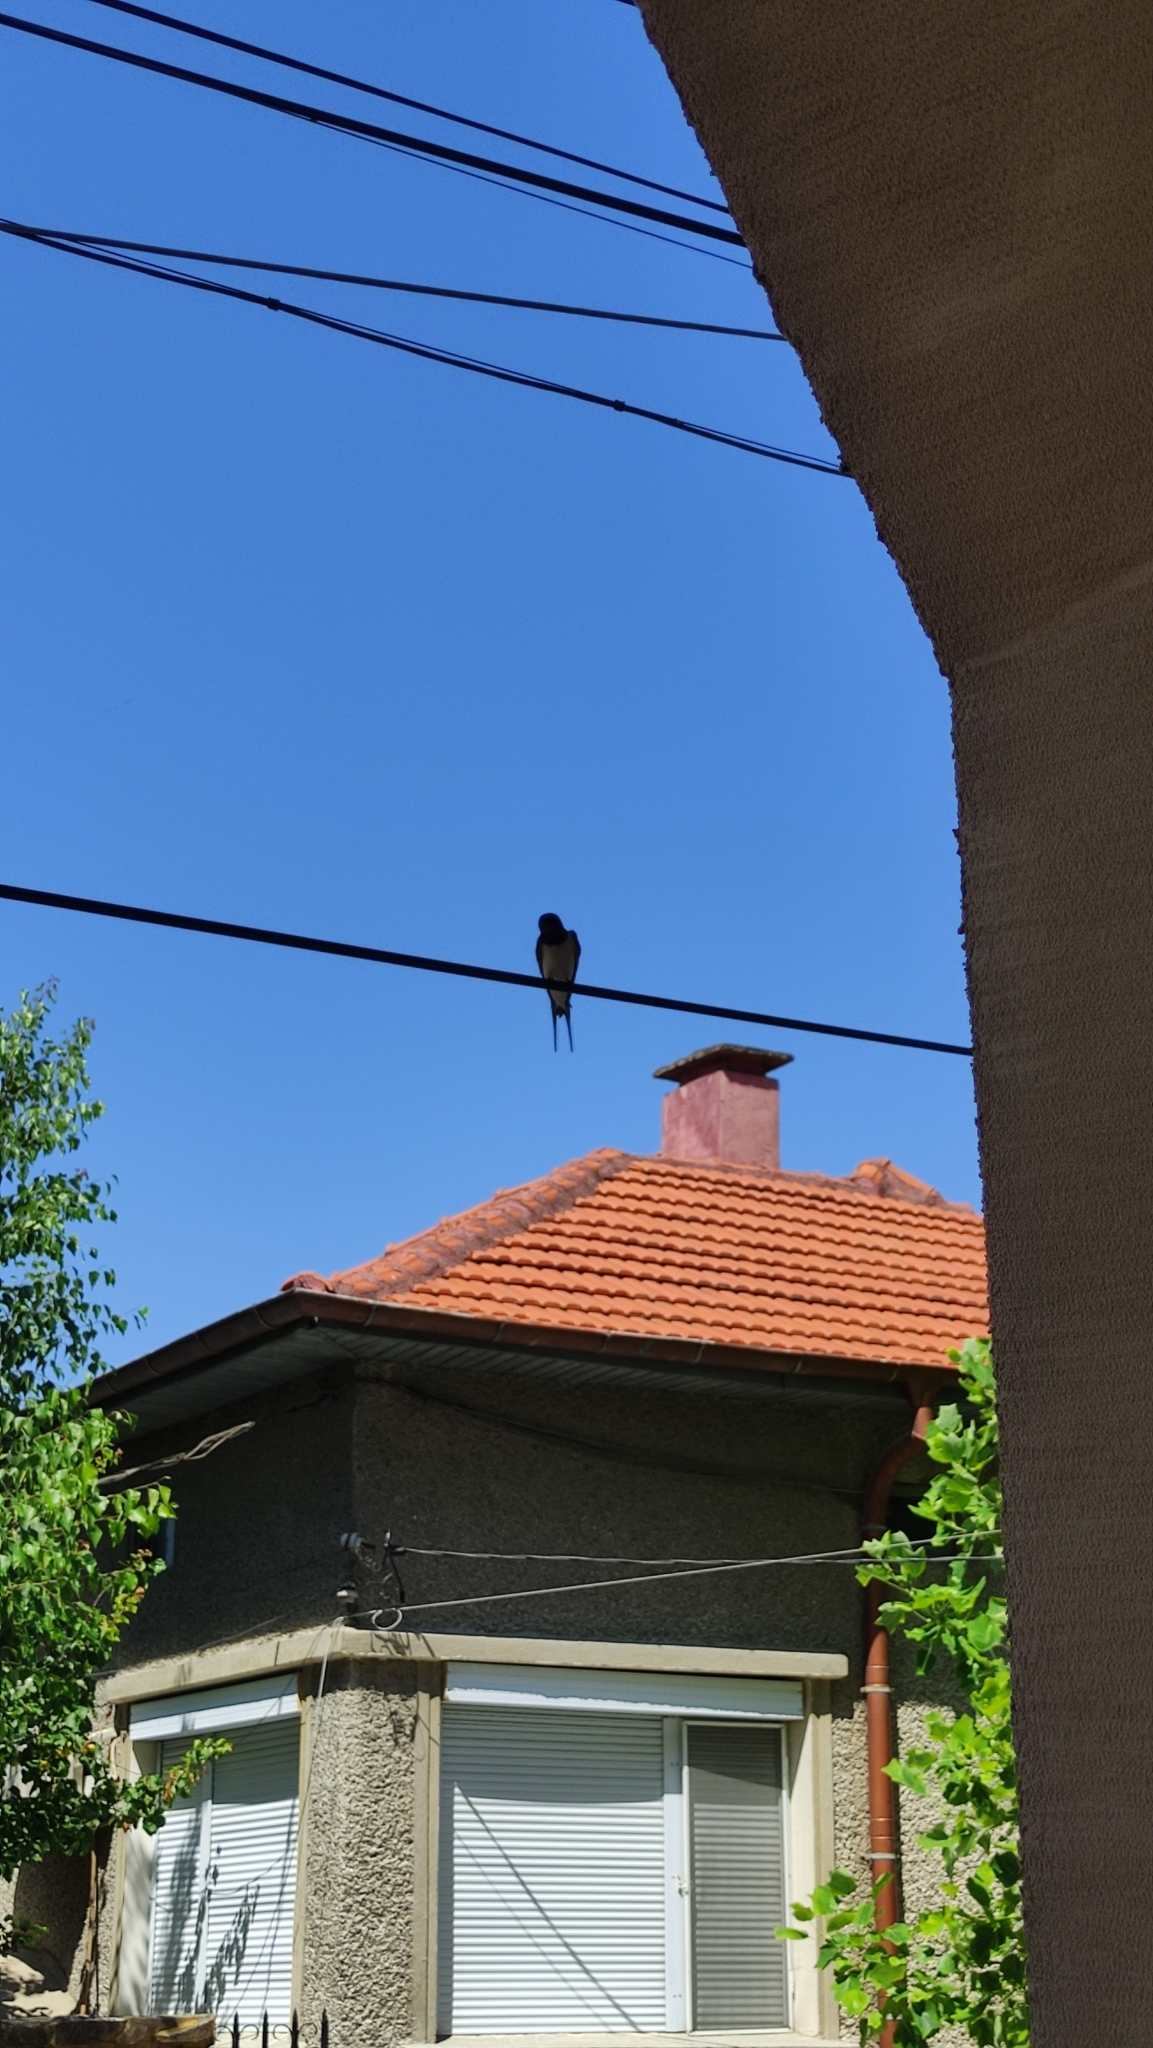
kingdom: Animalia
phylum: Chordata
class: Aves
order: Passeriformes
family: Hirundinidae
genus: Hirundo
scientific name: Hirundo rustica
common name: Barn swallow
